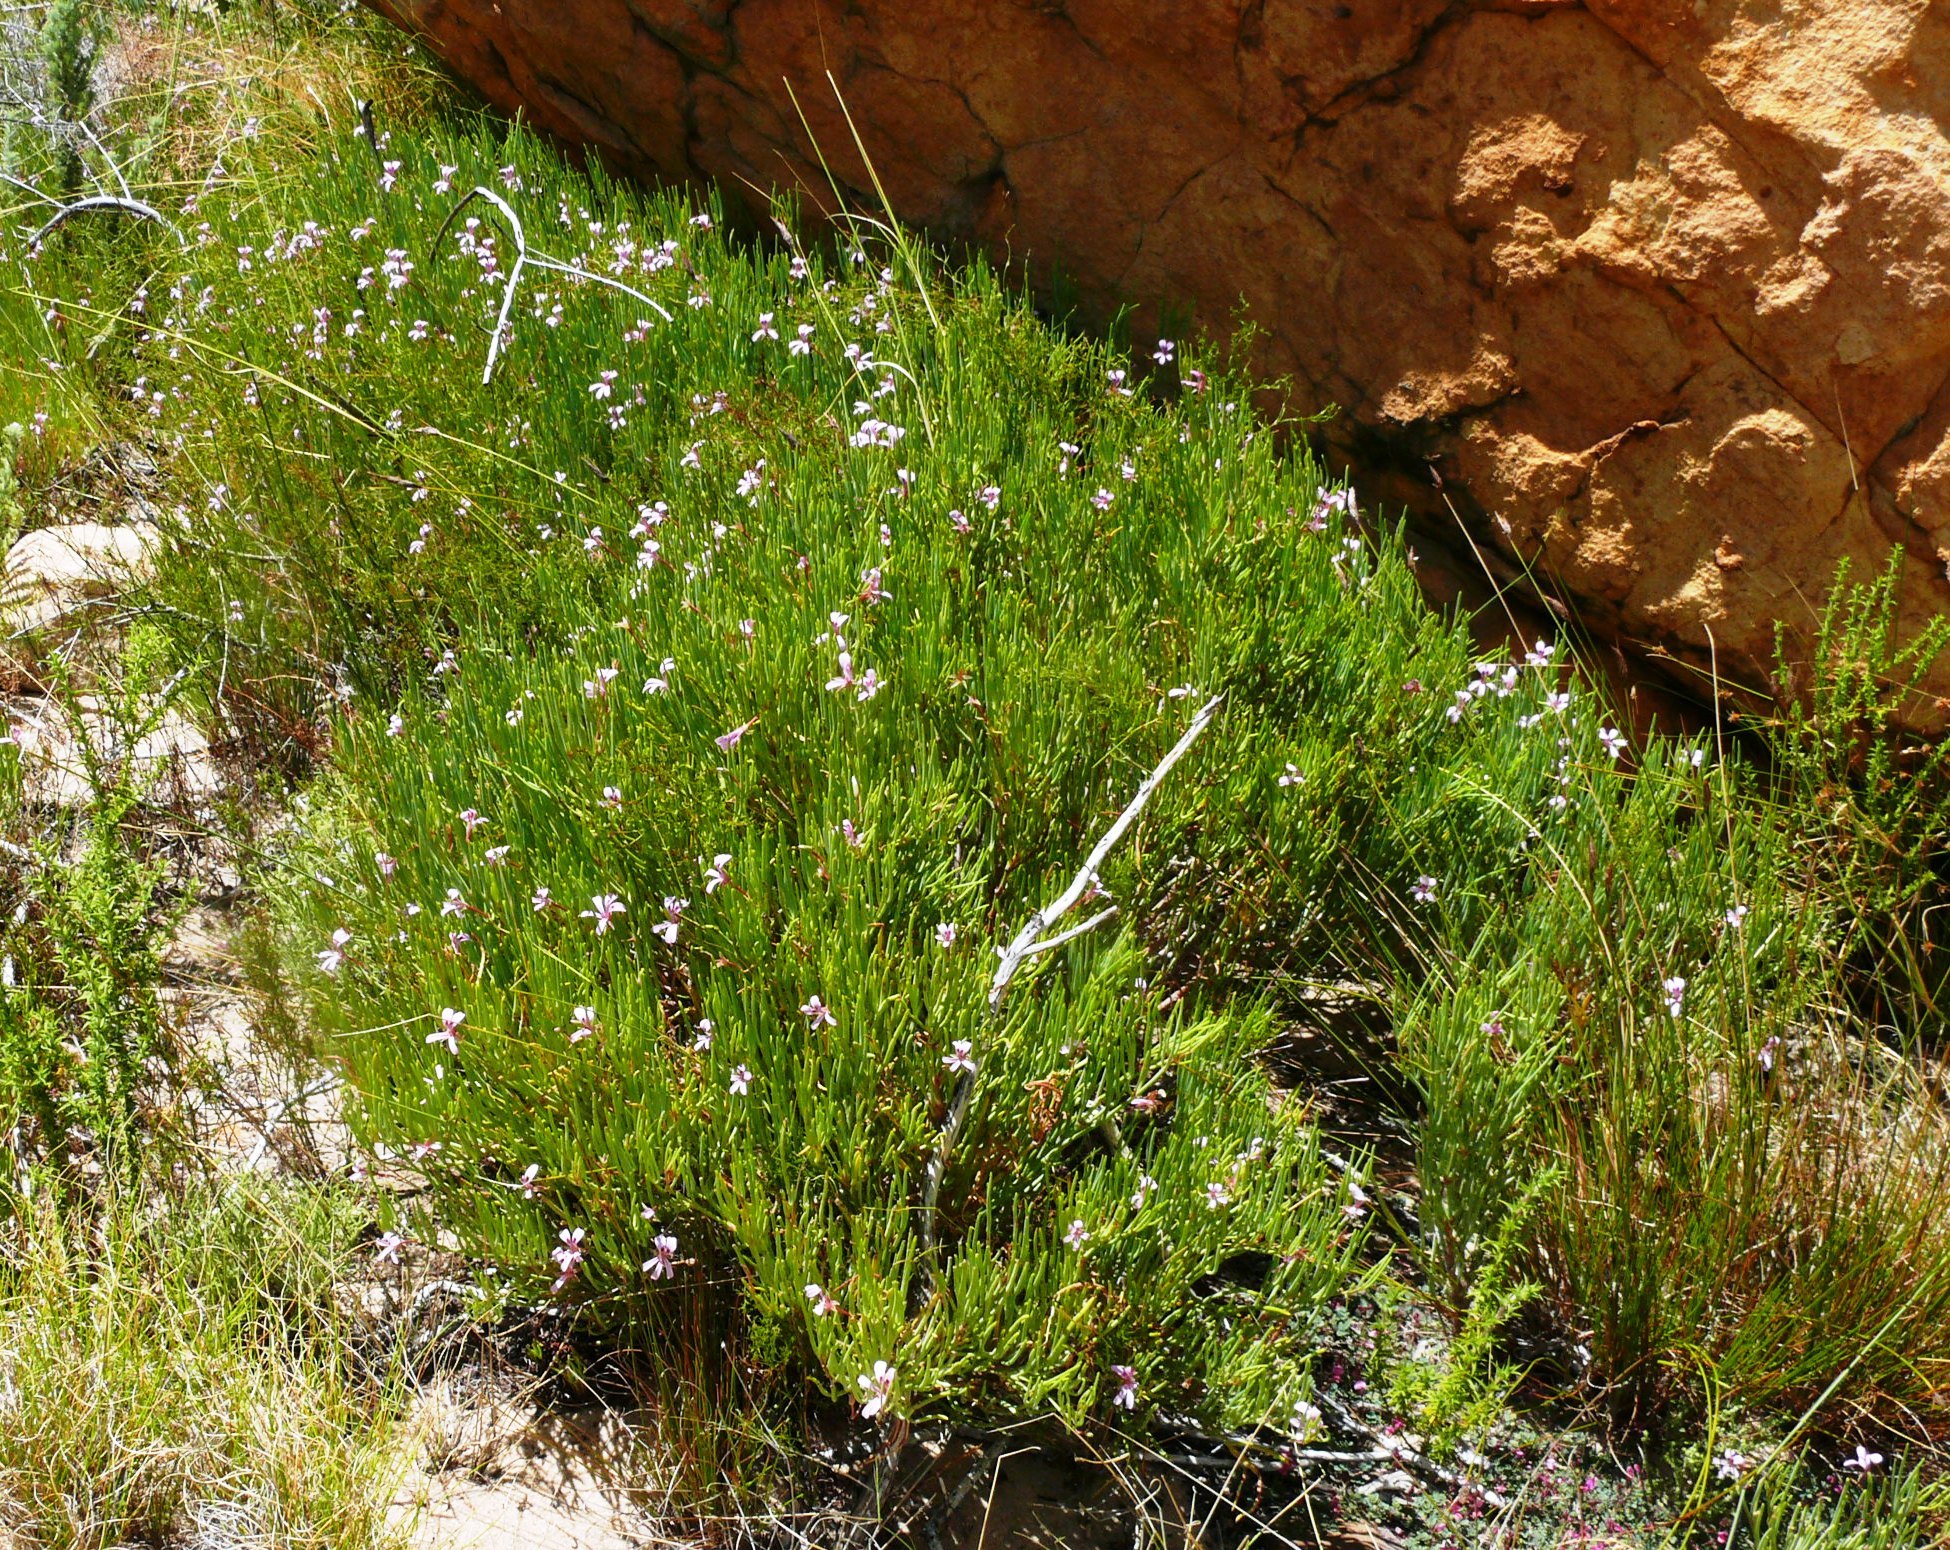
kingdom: Plantae
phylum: Tracheophyta
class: Magnoliopsida
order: Geraniales
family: Geraniaceae
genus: Pelargonium
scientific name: Pelargonium laevigatum
